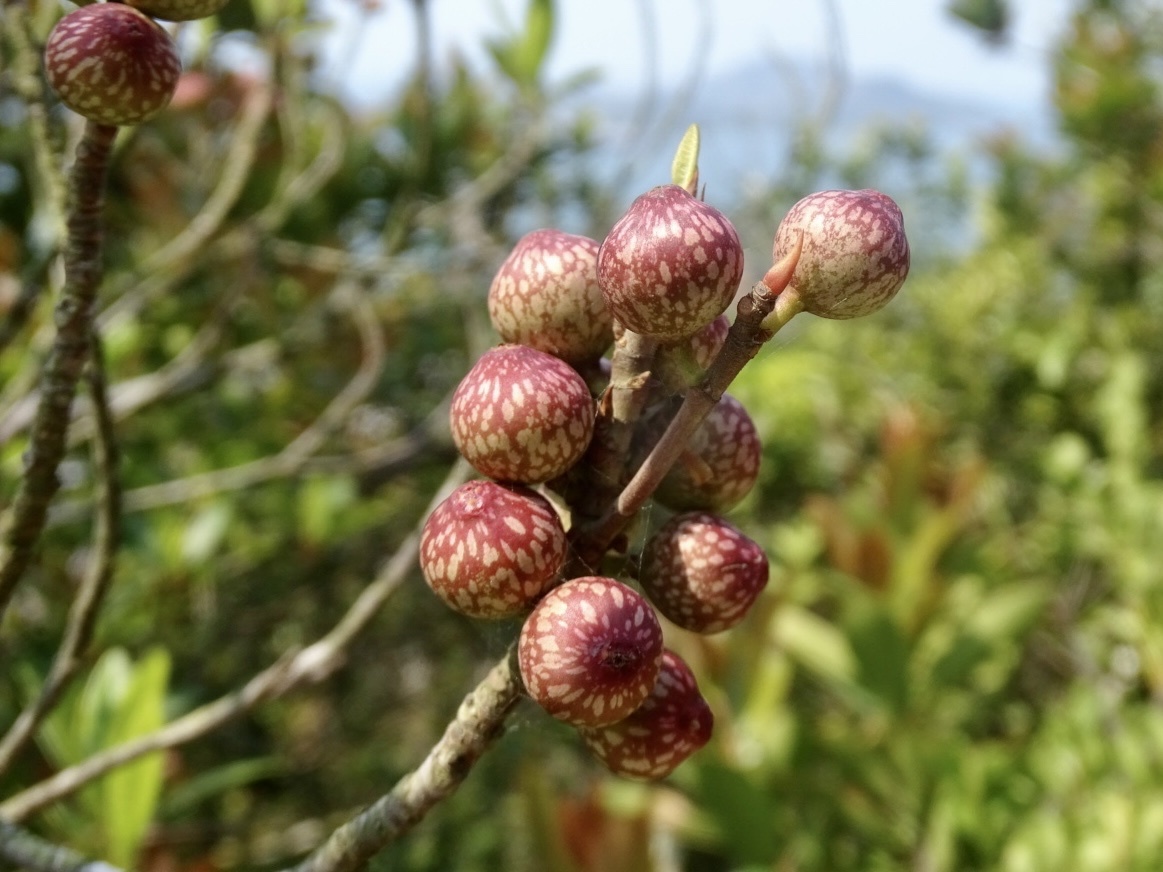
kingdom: Plantae
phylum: Tracheophyta
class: Magnoliopsida
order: Rosales
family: Moraceae
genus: Ficus
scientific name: Ficus variolosa
